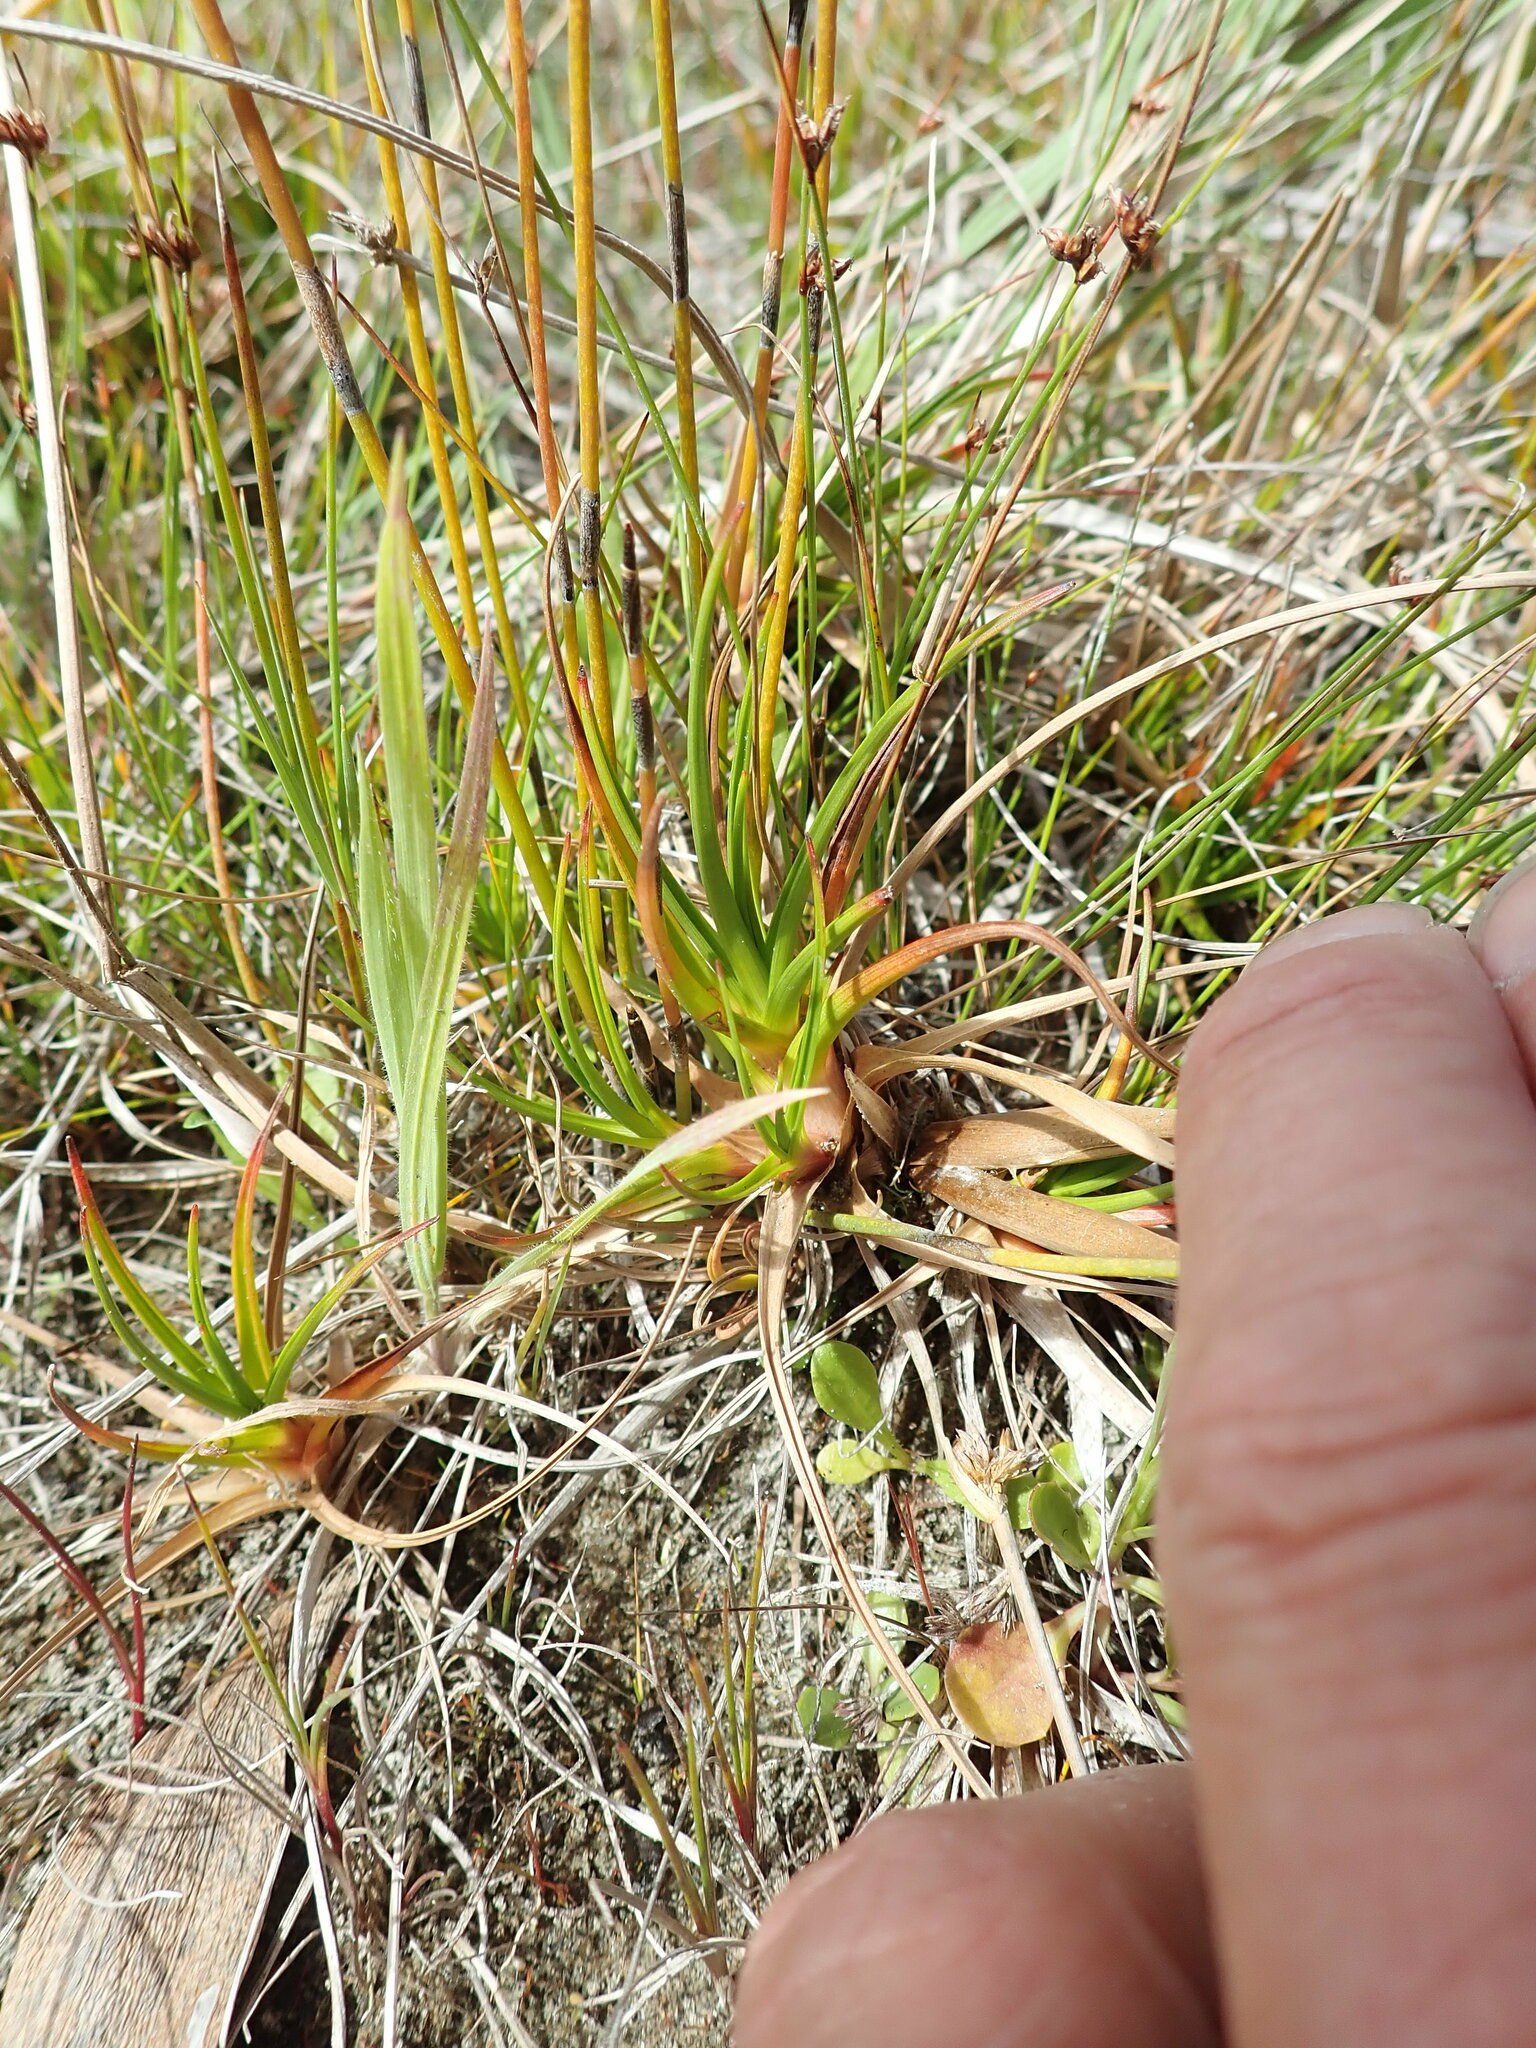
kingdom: Plantae
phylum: Tracheophyta
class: Liliopsida
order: Poales
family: Juncaceae
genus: Juncus
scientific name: Juncus caespiticius
